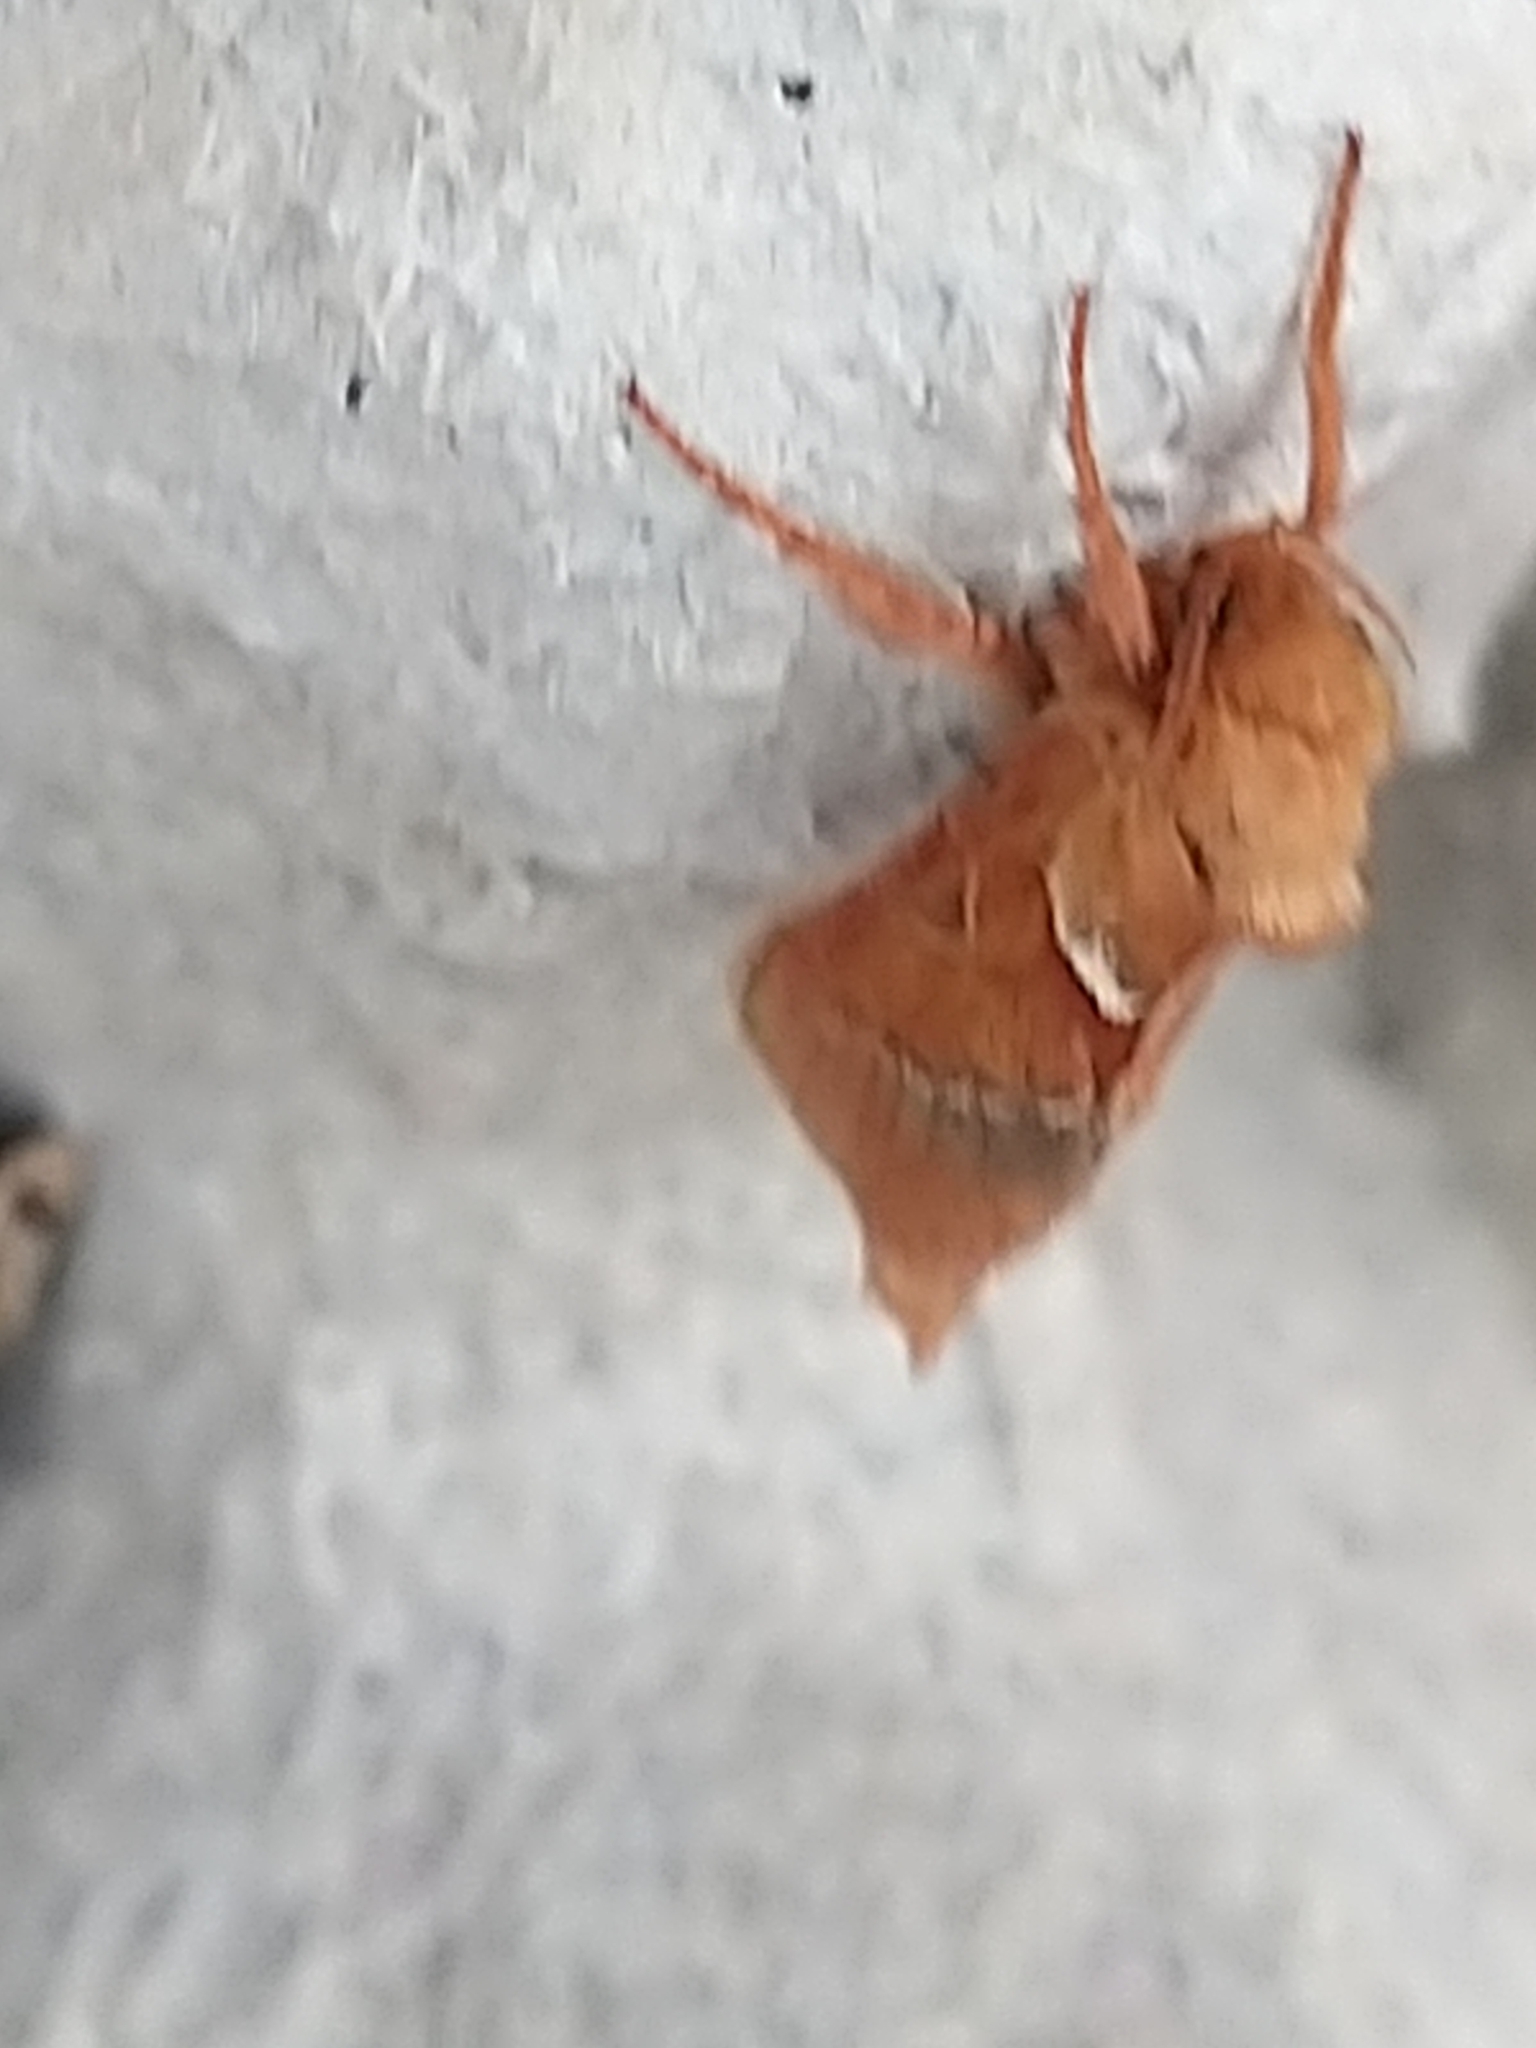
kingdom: Animalia
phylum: Arthropoda
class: Insecta
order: Lepidoptera
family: Hepialidae
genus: Triodia
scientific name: Triodia sylvina
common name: Orange swift
